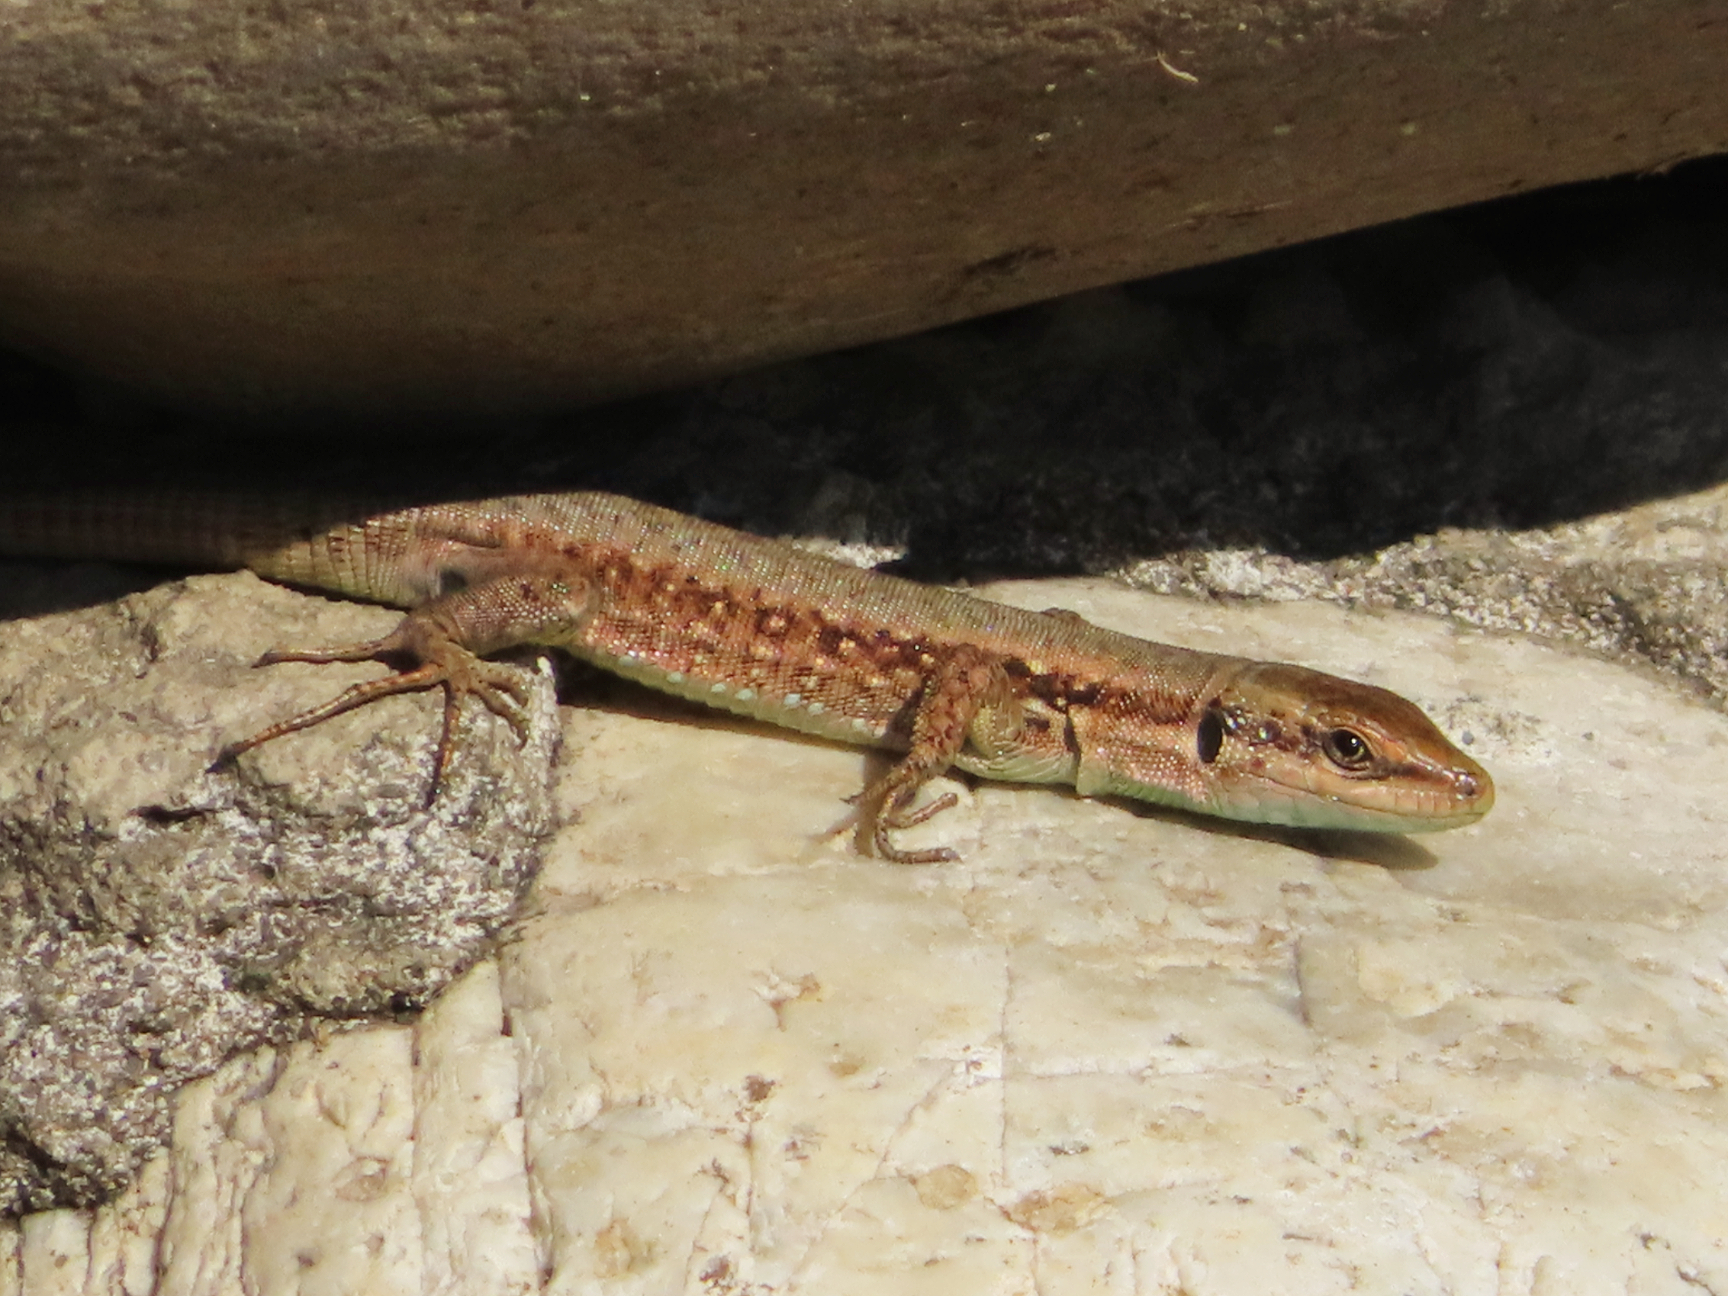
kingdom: Animalia
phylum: Chordata
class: Squamata
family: Lacertidae
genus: Phoenicolacerta
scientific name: Phoenicolacerta laevis
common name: Lebanon lizard
